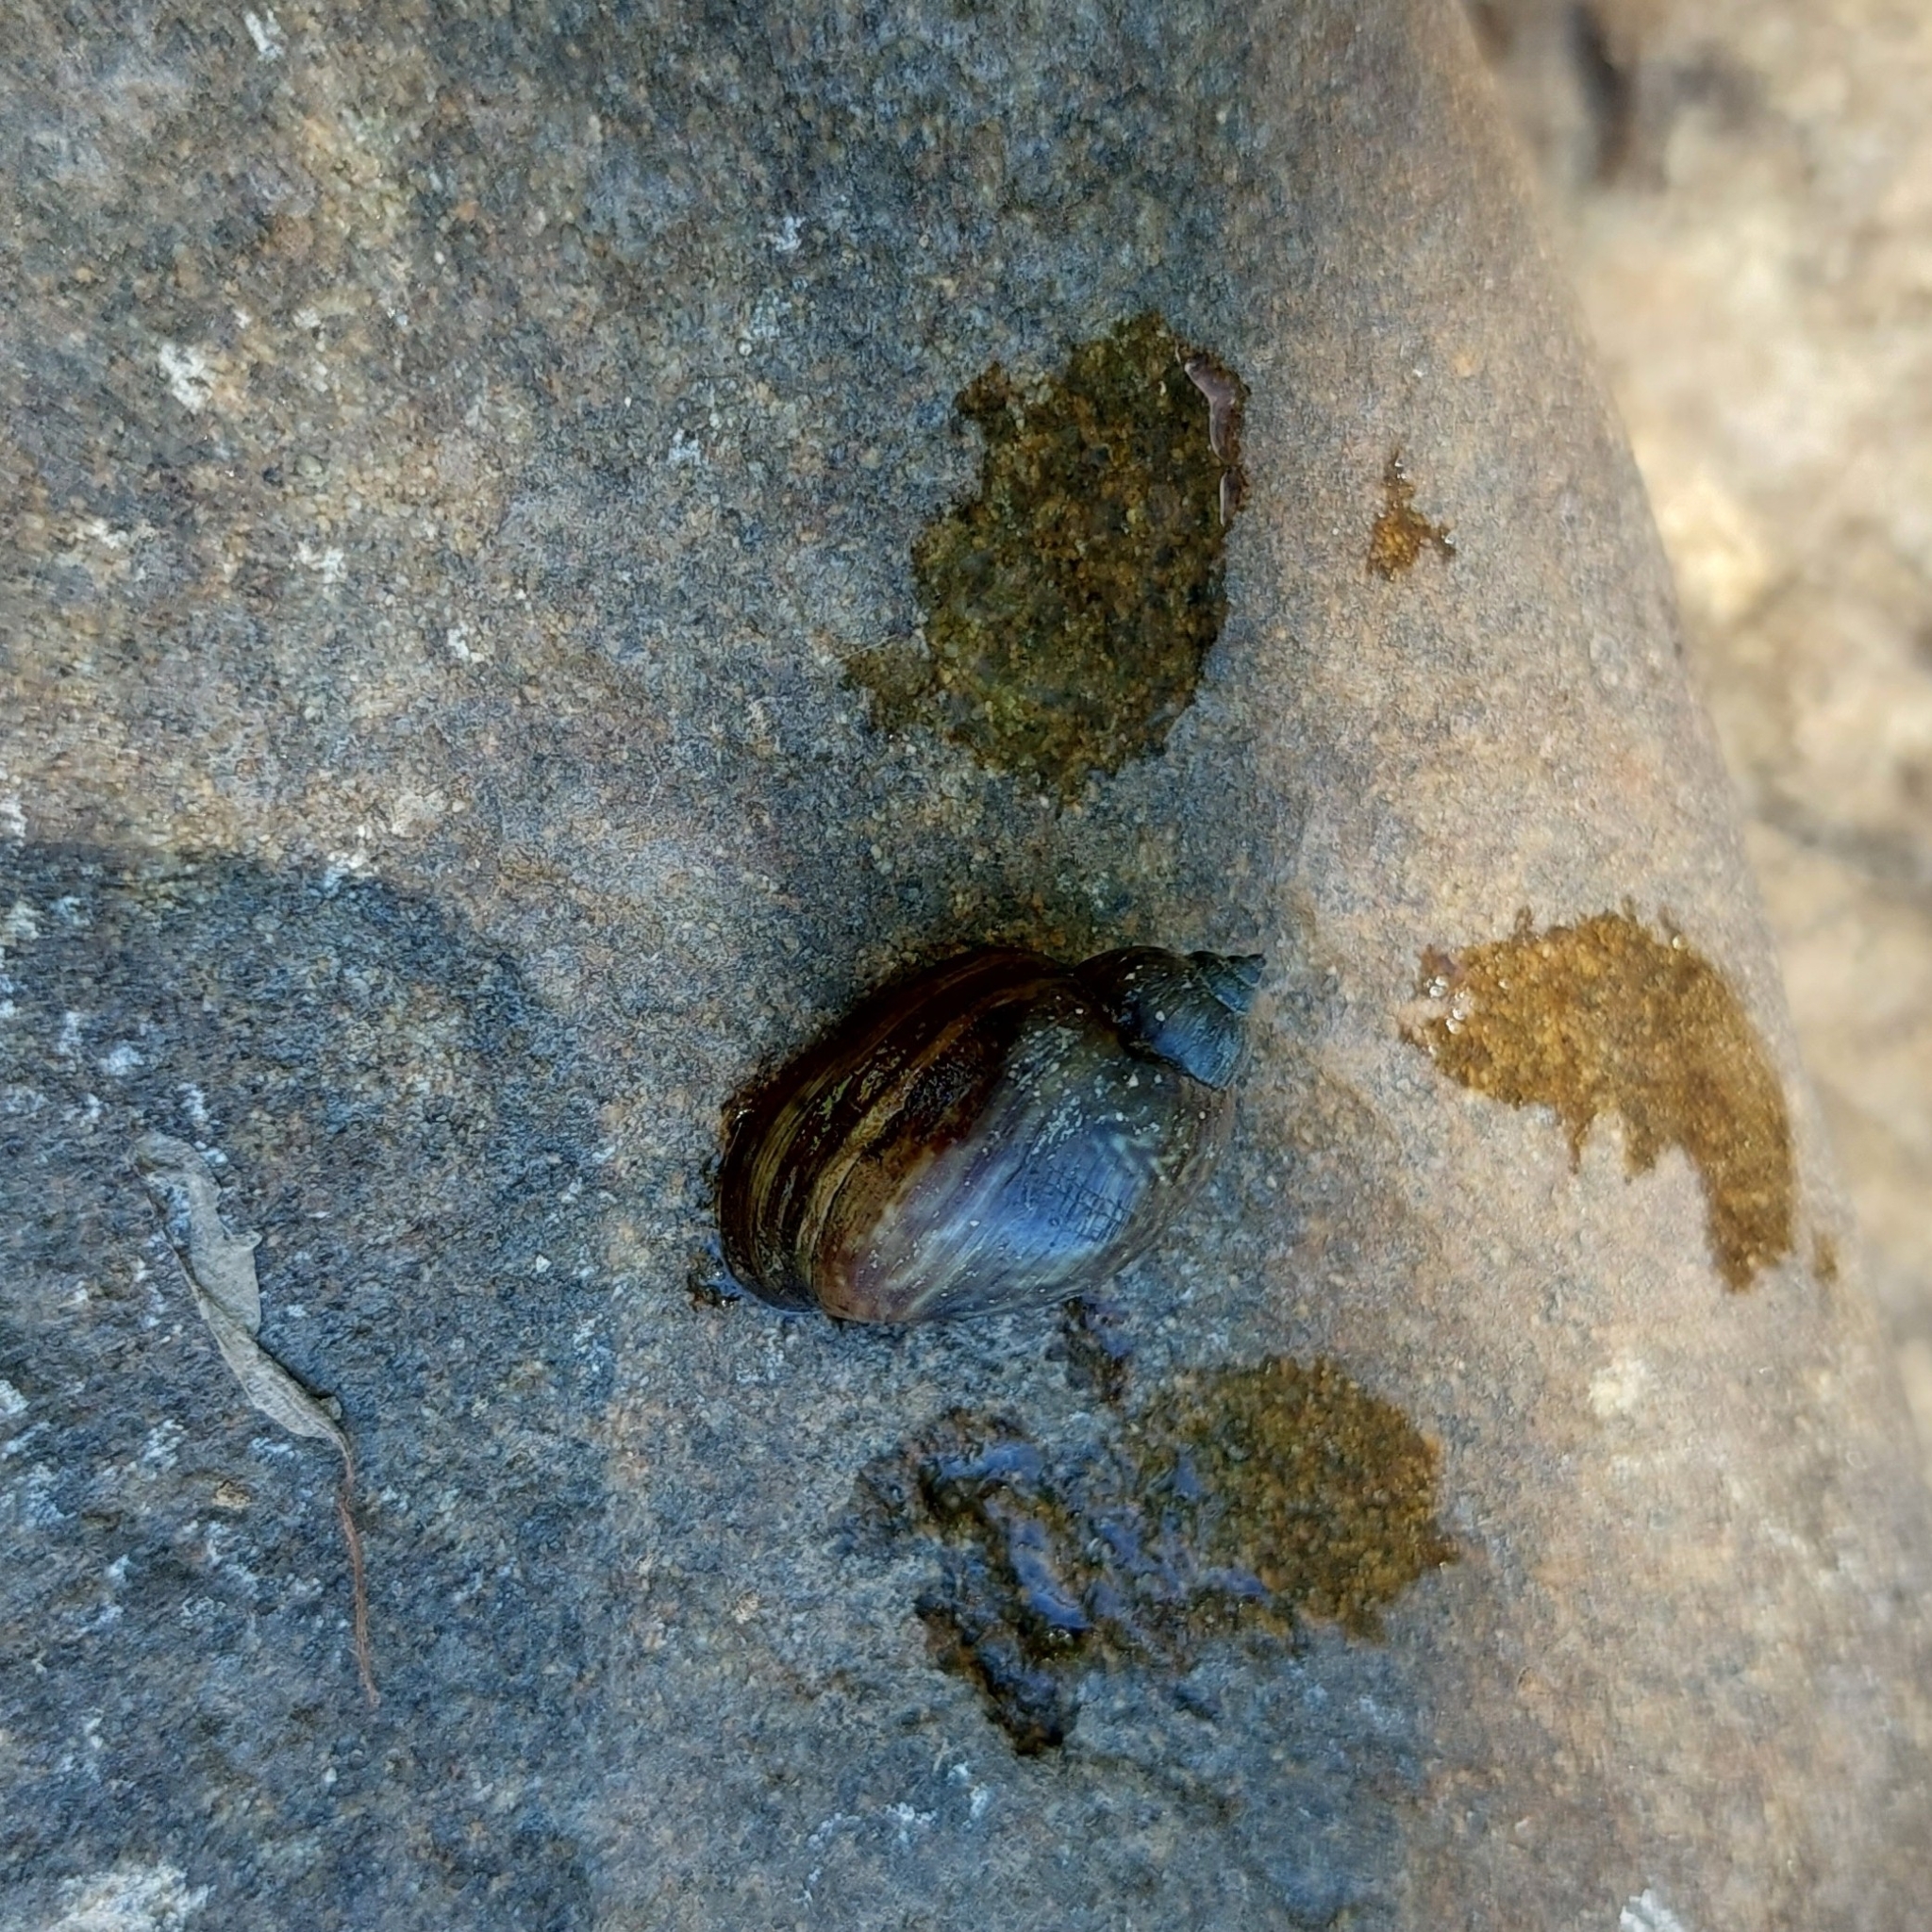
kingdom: Animalia
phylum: Mollusca
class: Gastropoda
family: Chilinidae
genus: Chilina
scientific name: Chilina parchappii
